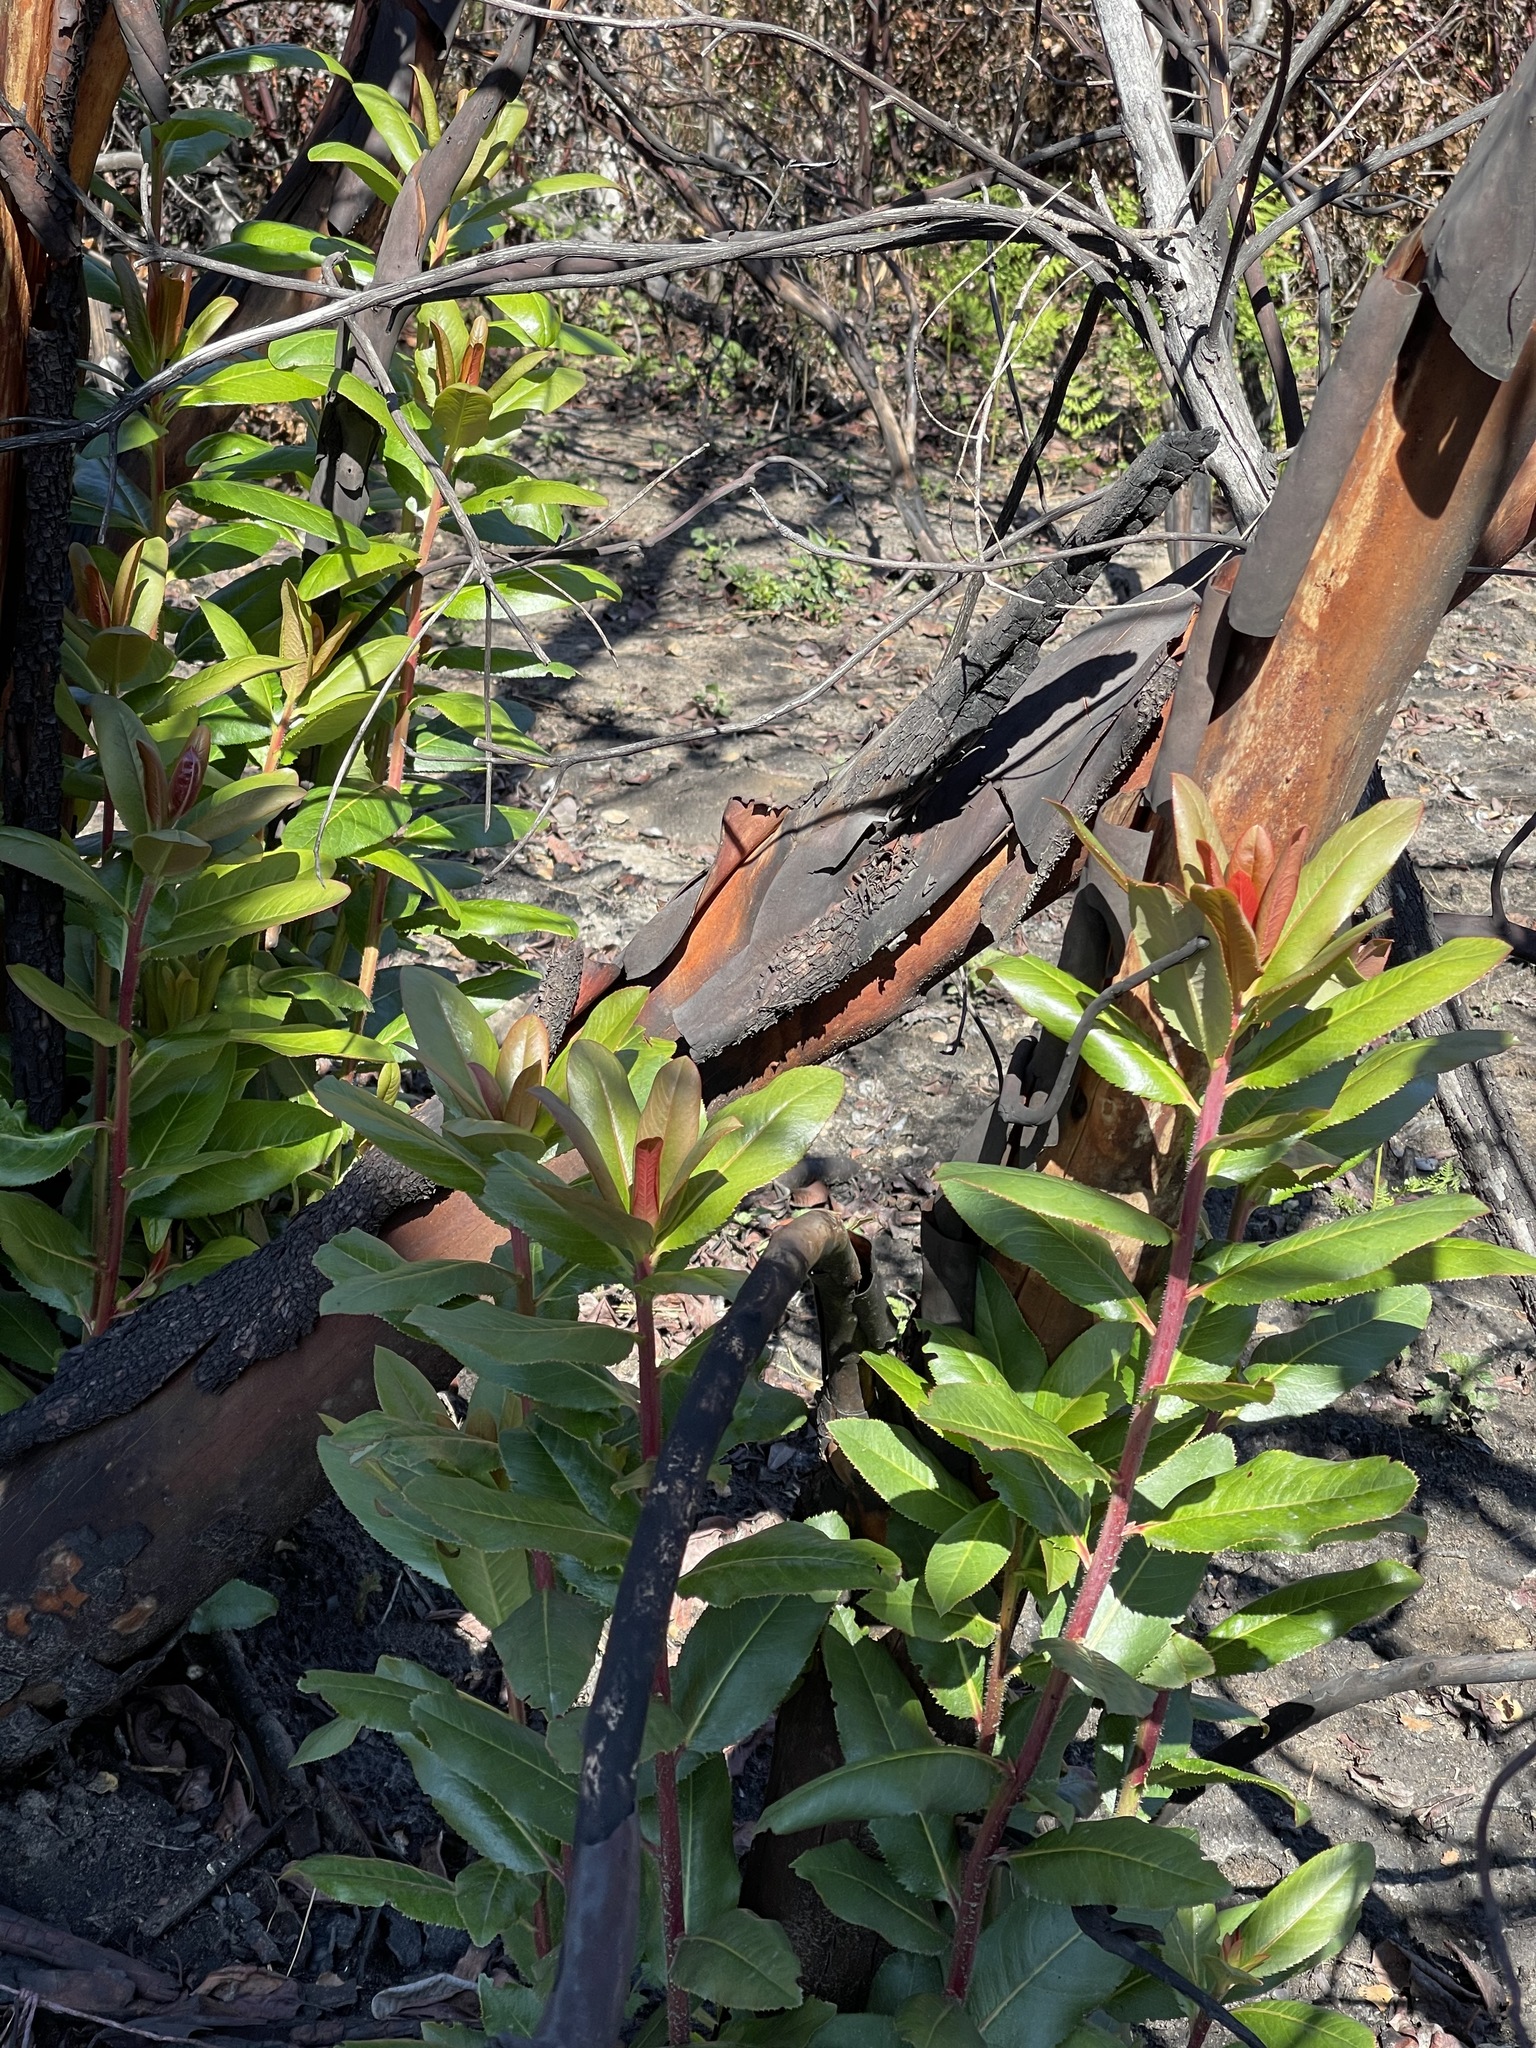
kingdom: Plantae
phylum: Tracheophyta
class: Magnoliopsida
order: Ericales
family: Ericaceae
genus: Arbutus
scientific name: Arbutus menziesii
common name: Pacific madrone
